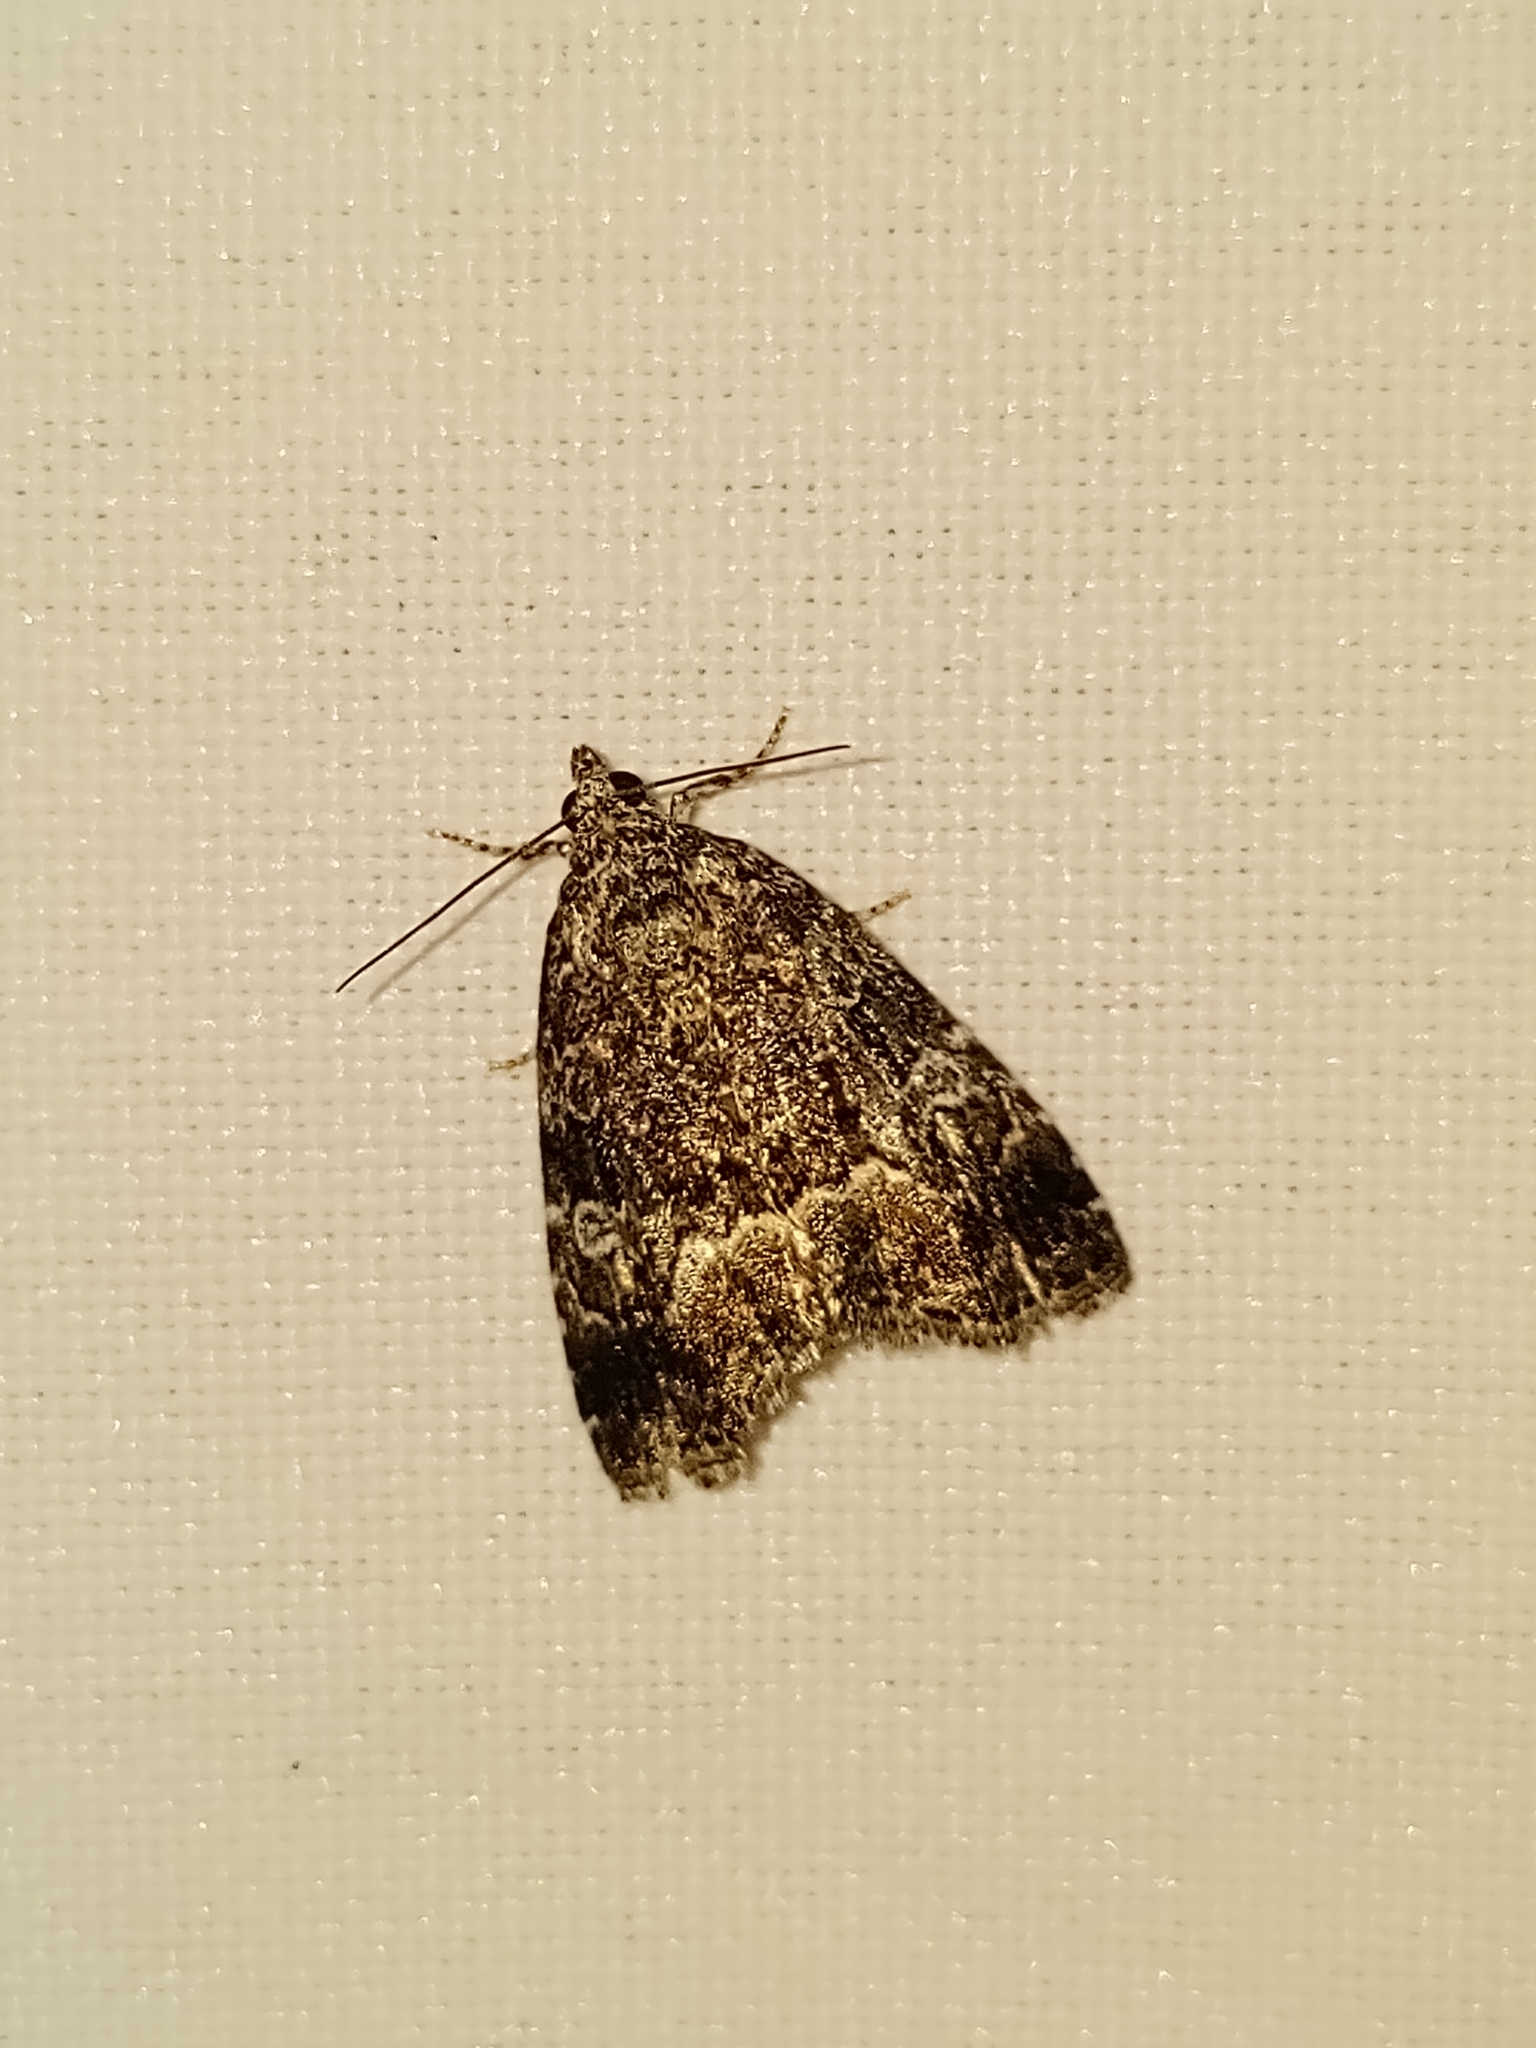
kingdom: Animalia
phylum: Arthropoda
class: Insecta
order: Lepidoptera
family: Noctuidae
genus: Deltote
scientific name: Deltote pygarga
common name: Marbled white spot
